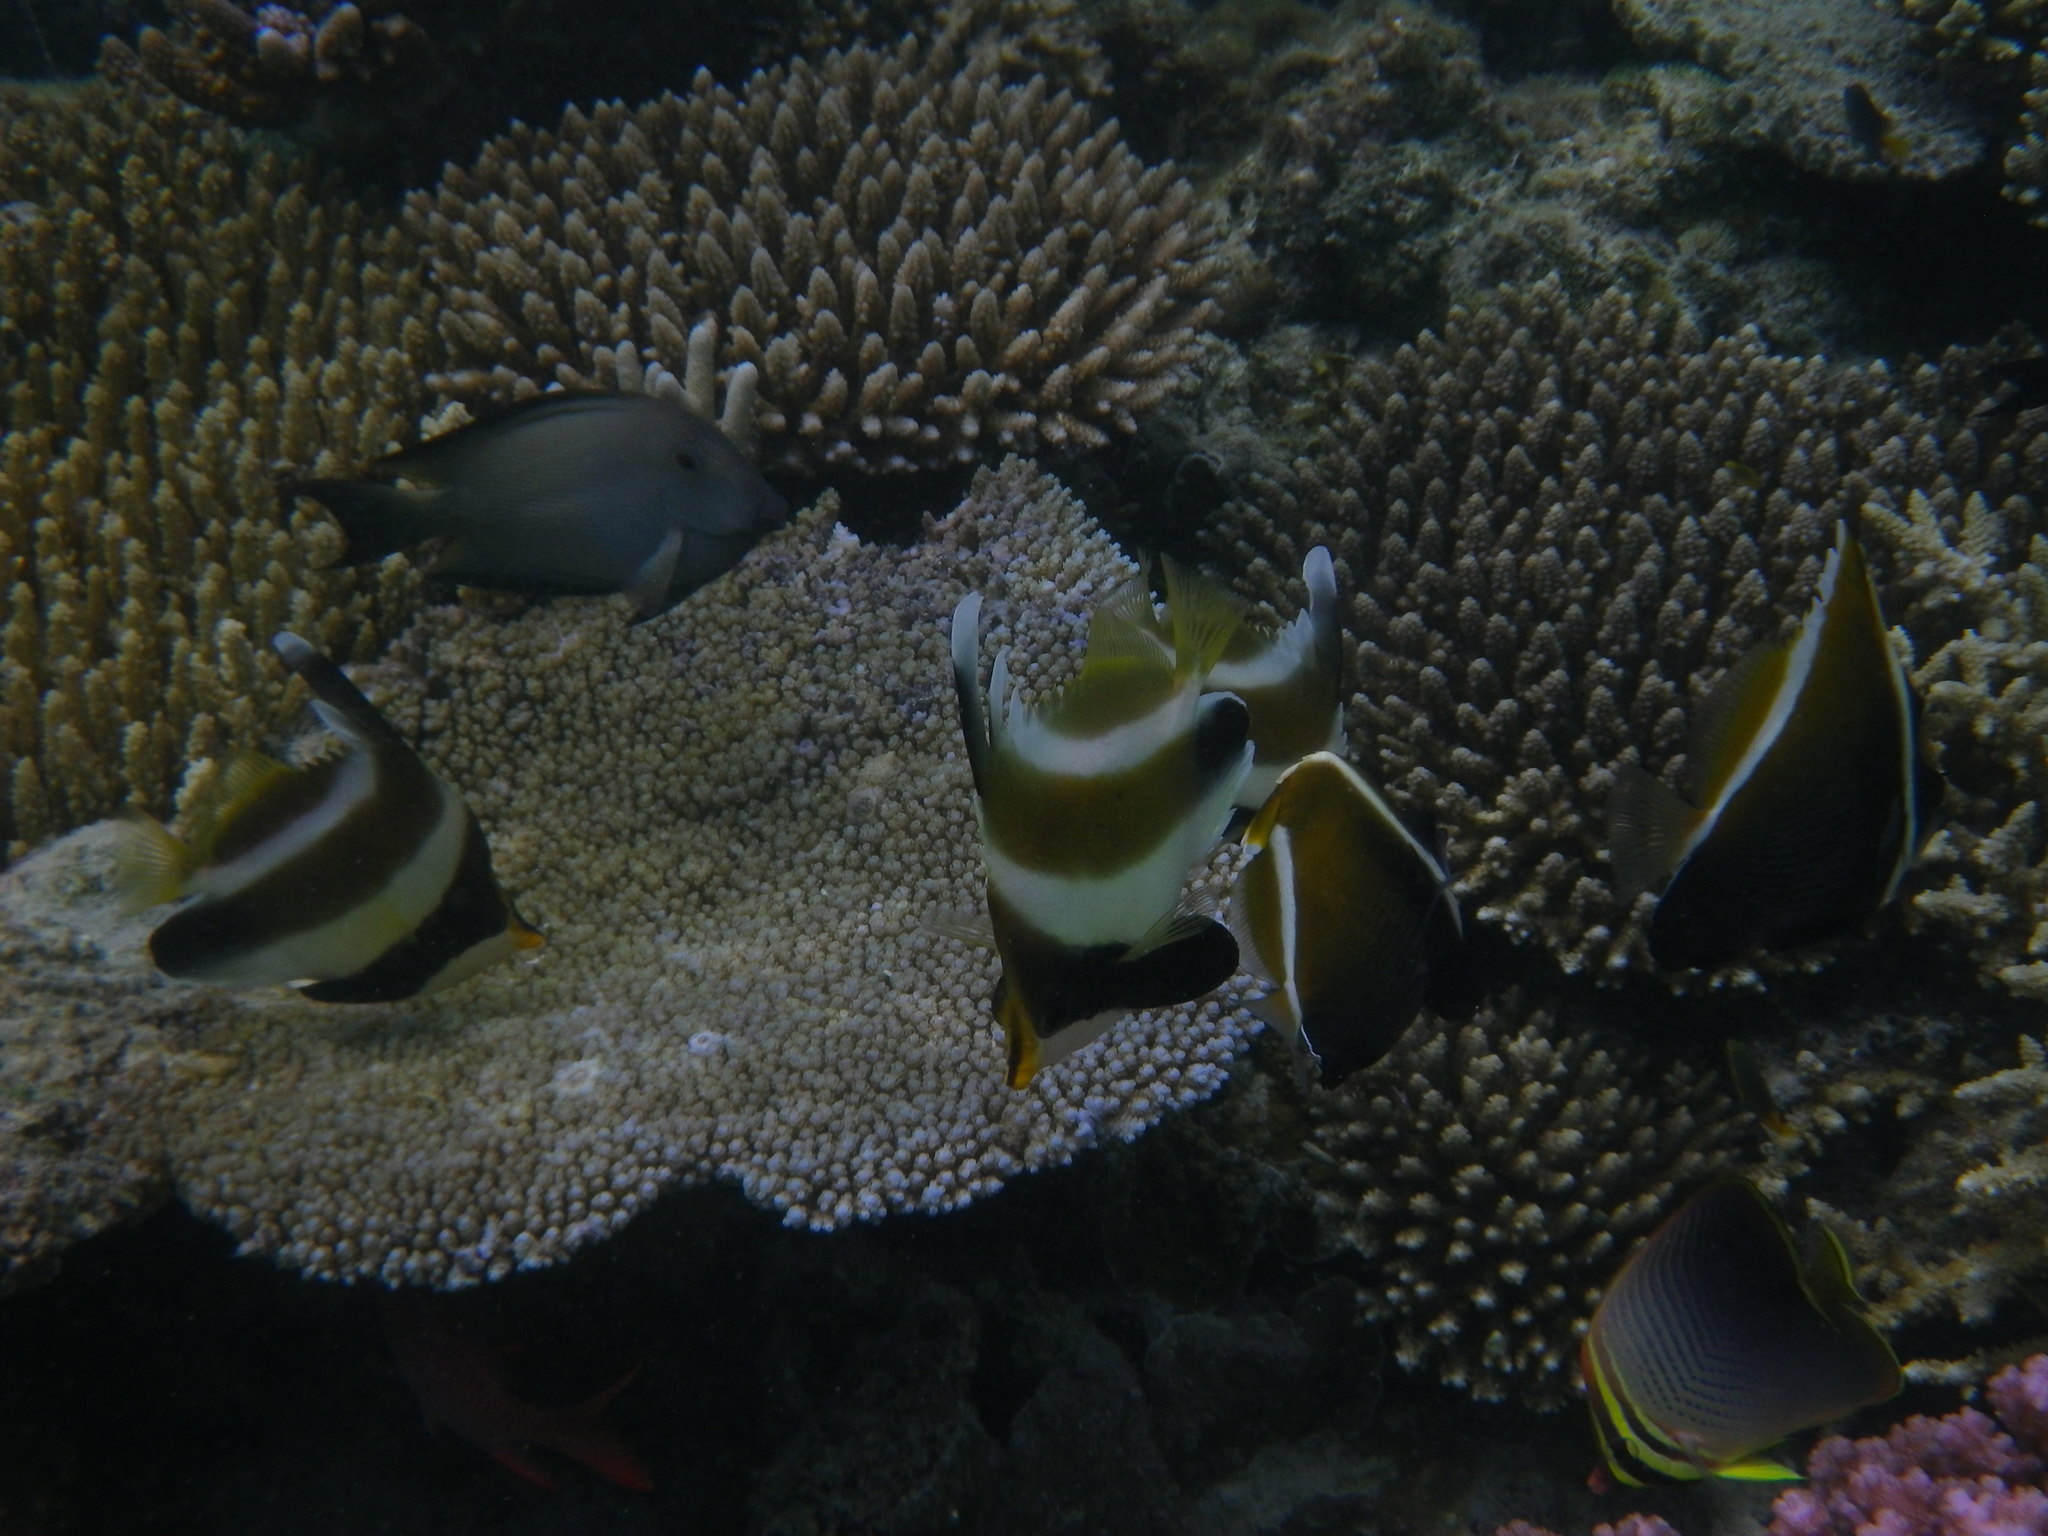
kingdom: Animalia
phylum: Chordata
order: Perciformes
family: Chaetodontidae
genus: Heniochus
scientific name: Heniochus varius
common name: Horned bannerfish
